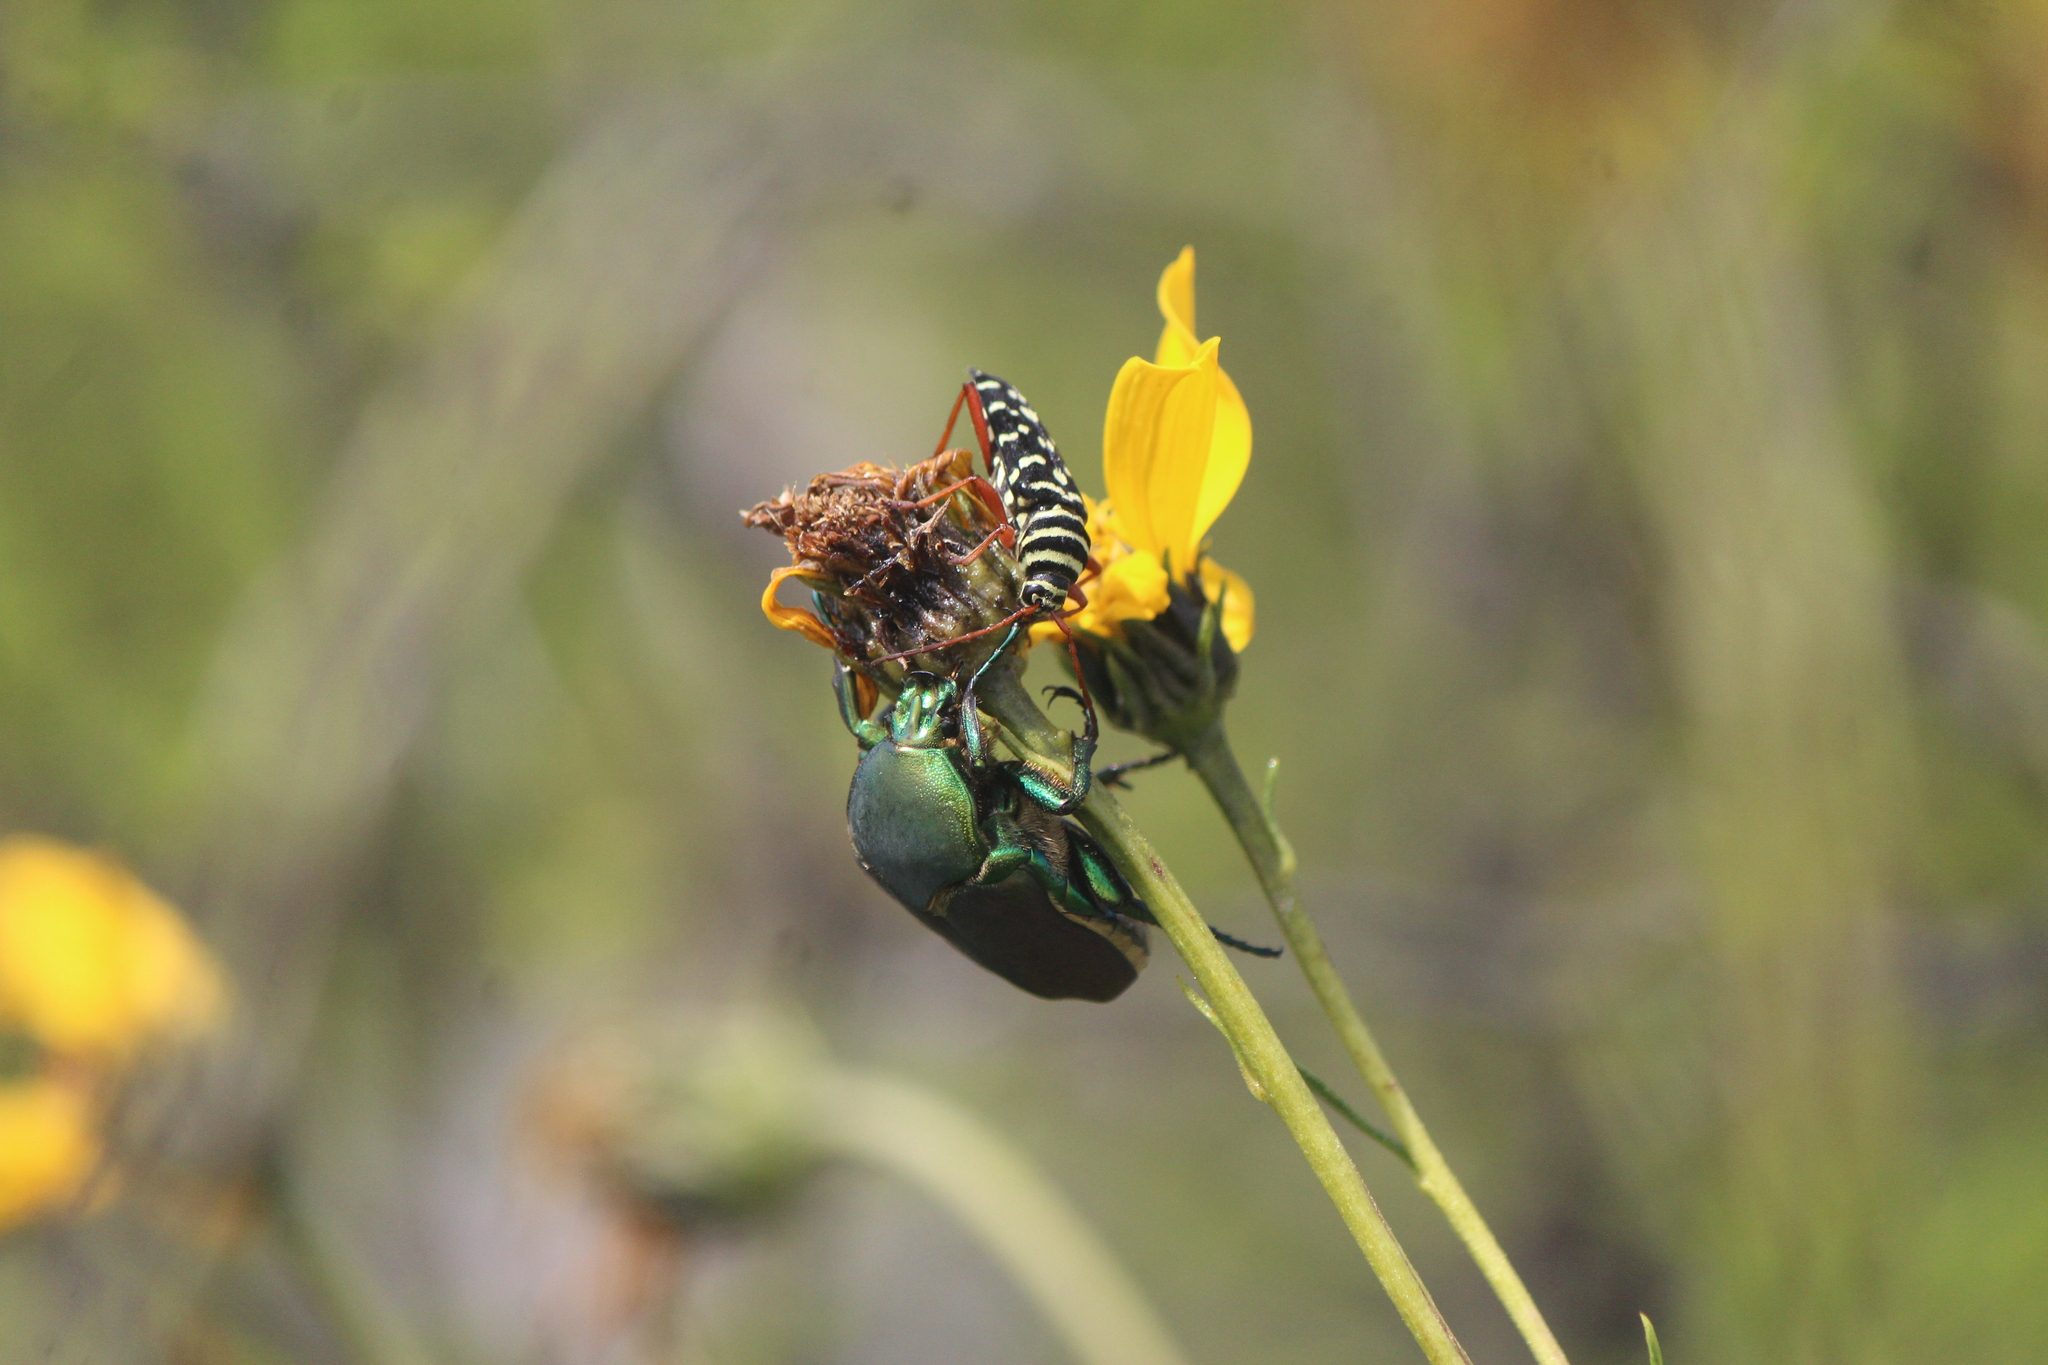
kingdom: Animalia
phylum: Arthropoda
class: Insecta
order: Coleoptera
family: Scarabaeidae
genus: Cotinis
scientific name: Cotinis laticornis
